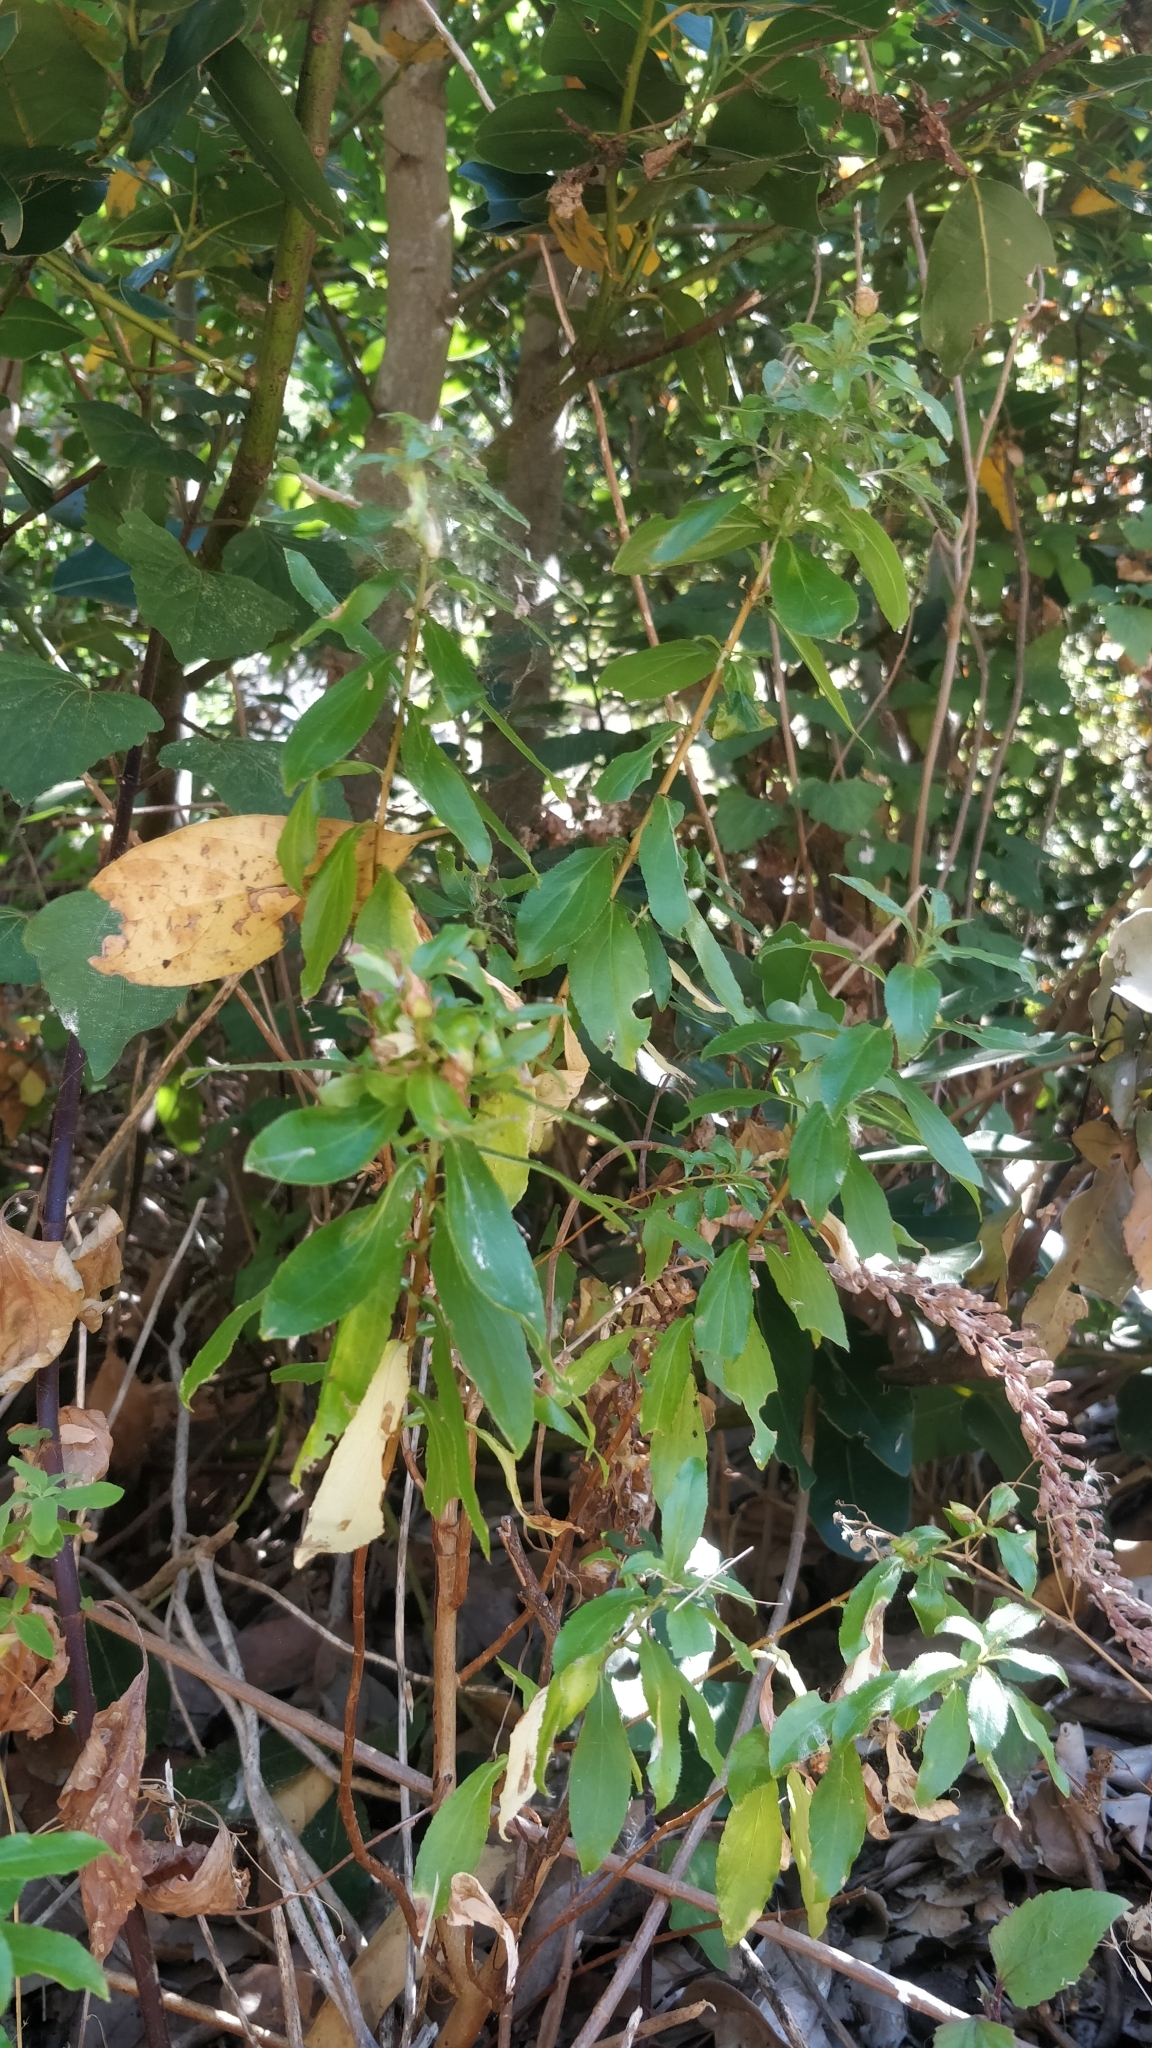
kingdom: Plantae
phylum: Tracheophyta
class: Magnoliopsida
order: Malpighiales
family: Hypericaceae
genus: Hypericum
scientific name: Hypericum glandulosum
